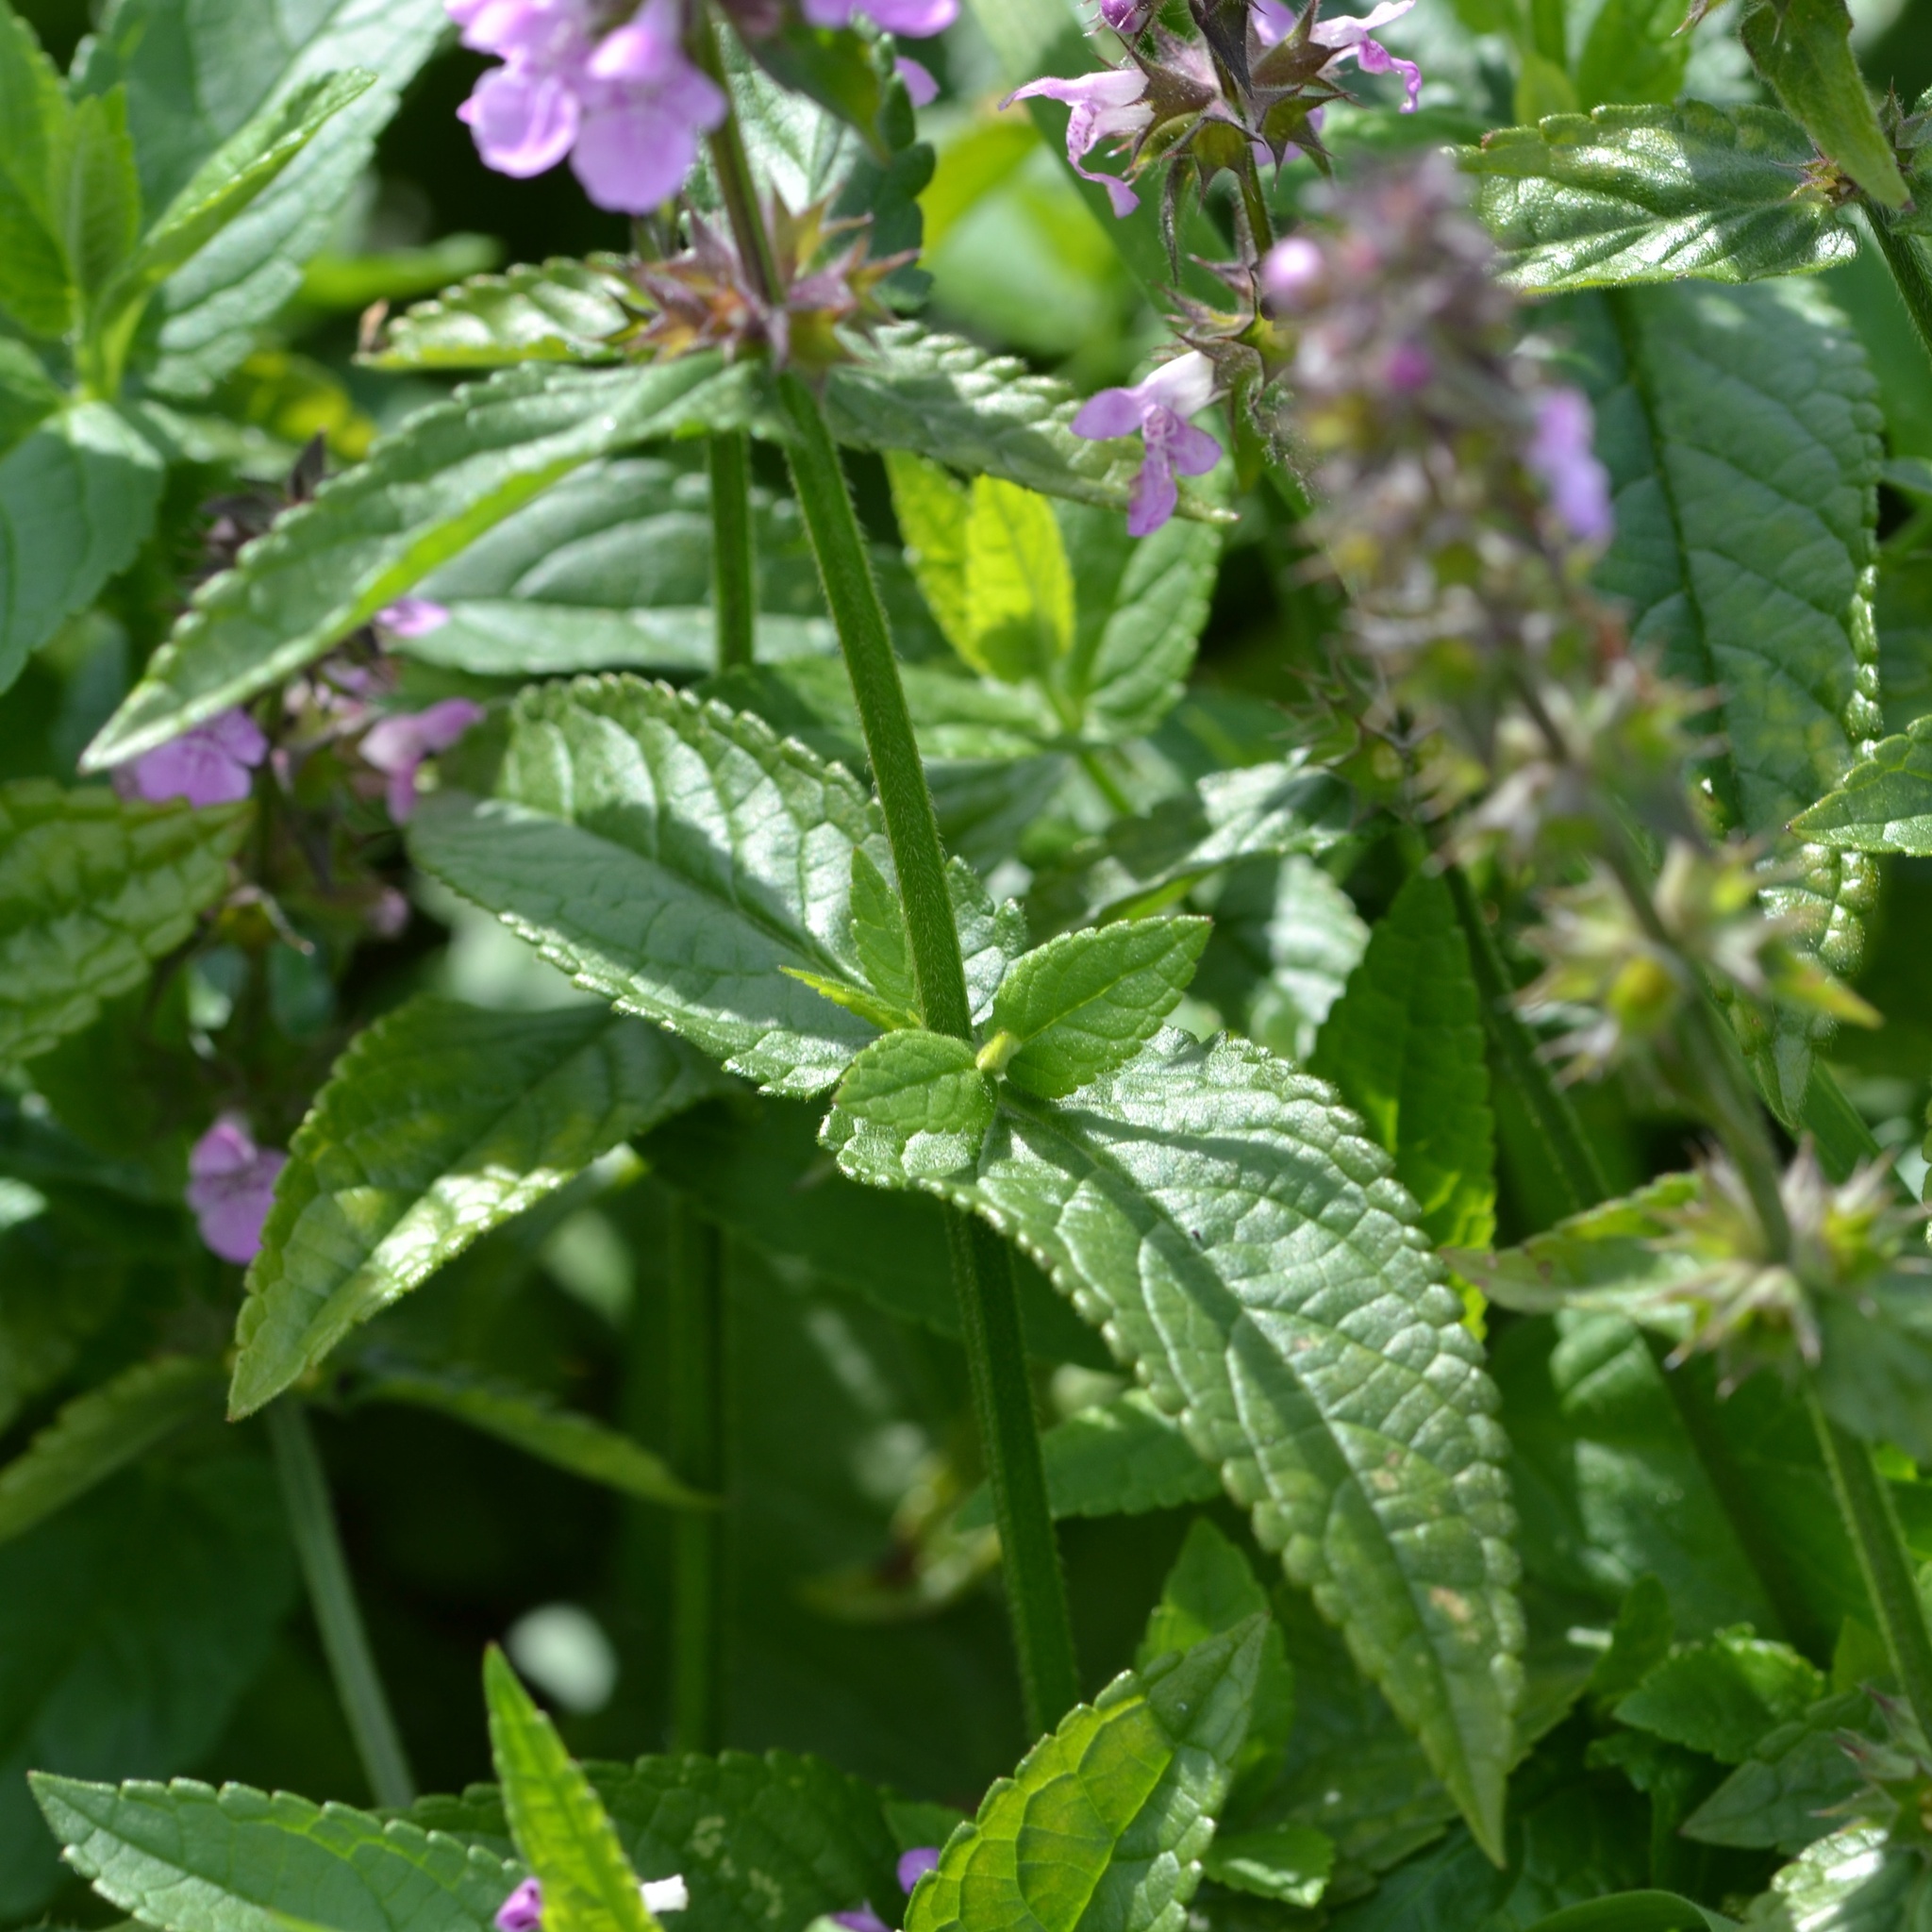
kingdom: Plantae
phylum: Tracheophyta
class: Magnoliopsida
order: Lamiales
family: Lamiaceae
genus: Stachys
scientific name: Stachys palustris
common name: Marsh woundwort
